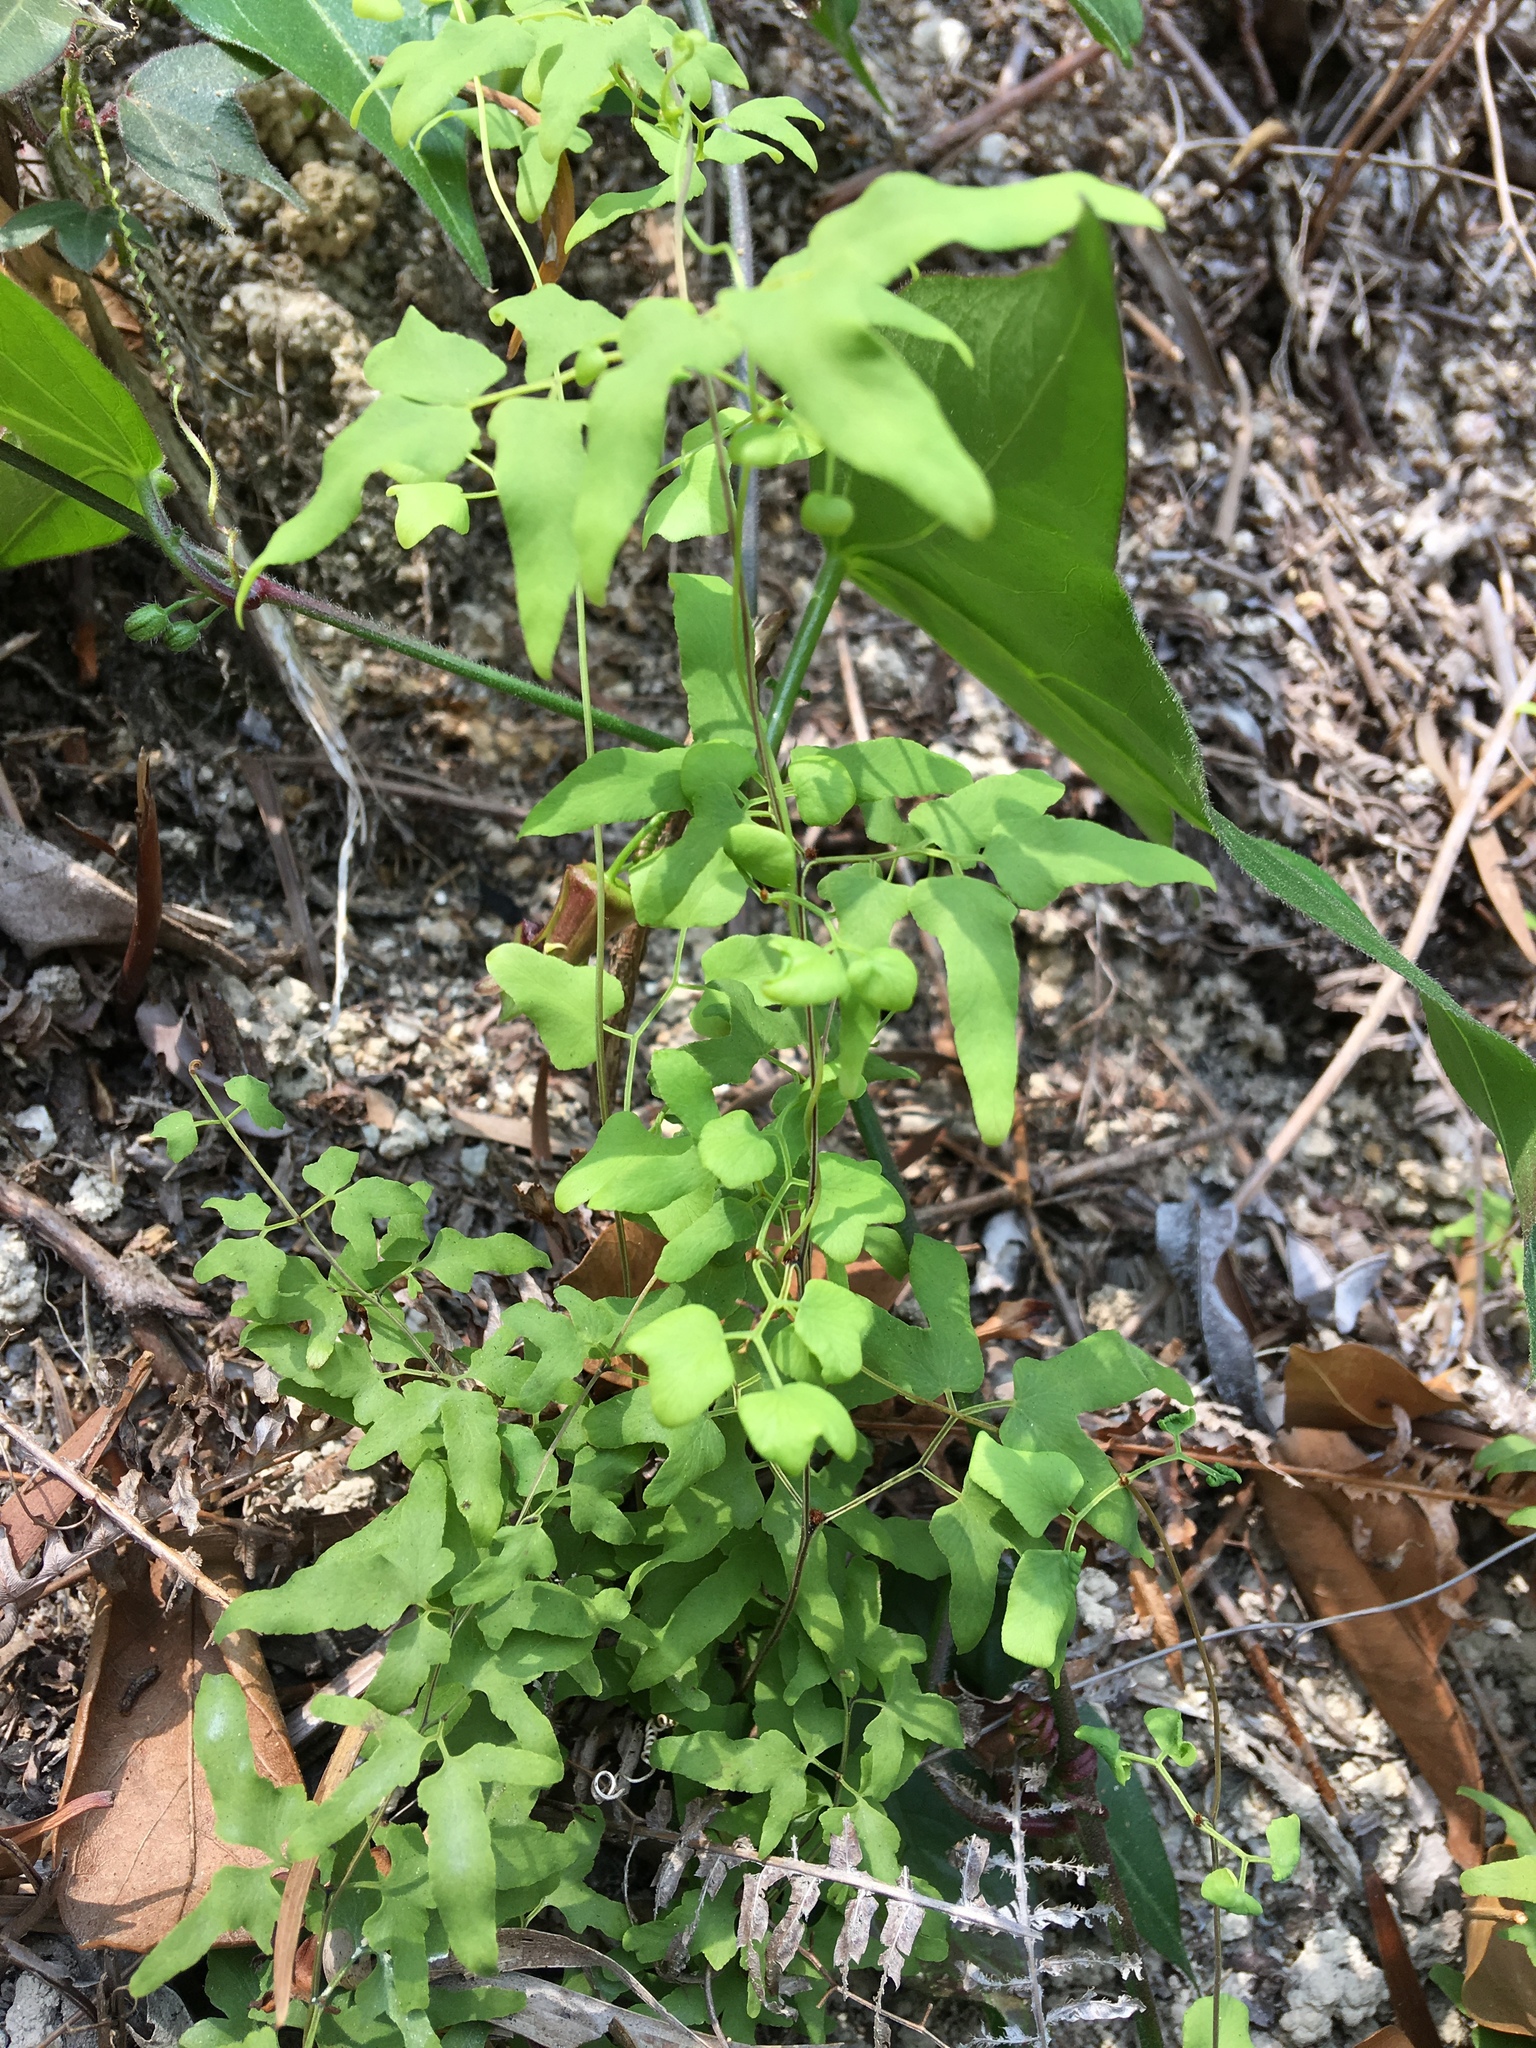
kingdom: Plantae
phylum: Tracheophyta
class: Polypodiopsida
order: Schizaeales
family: Lygodiaceae
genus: Lygodium
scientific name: Lygodium
